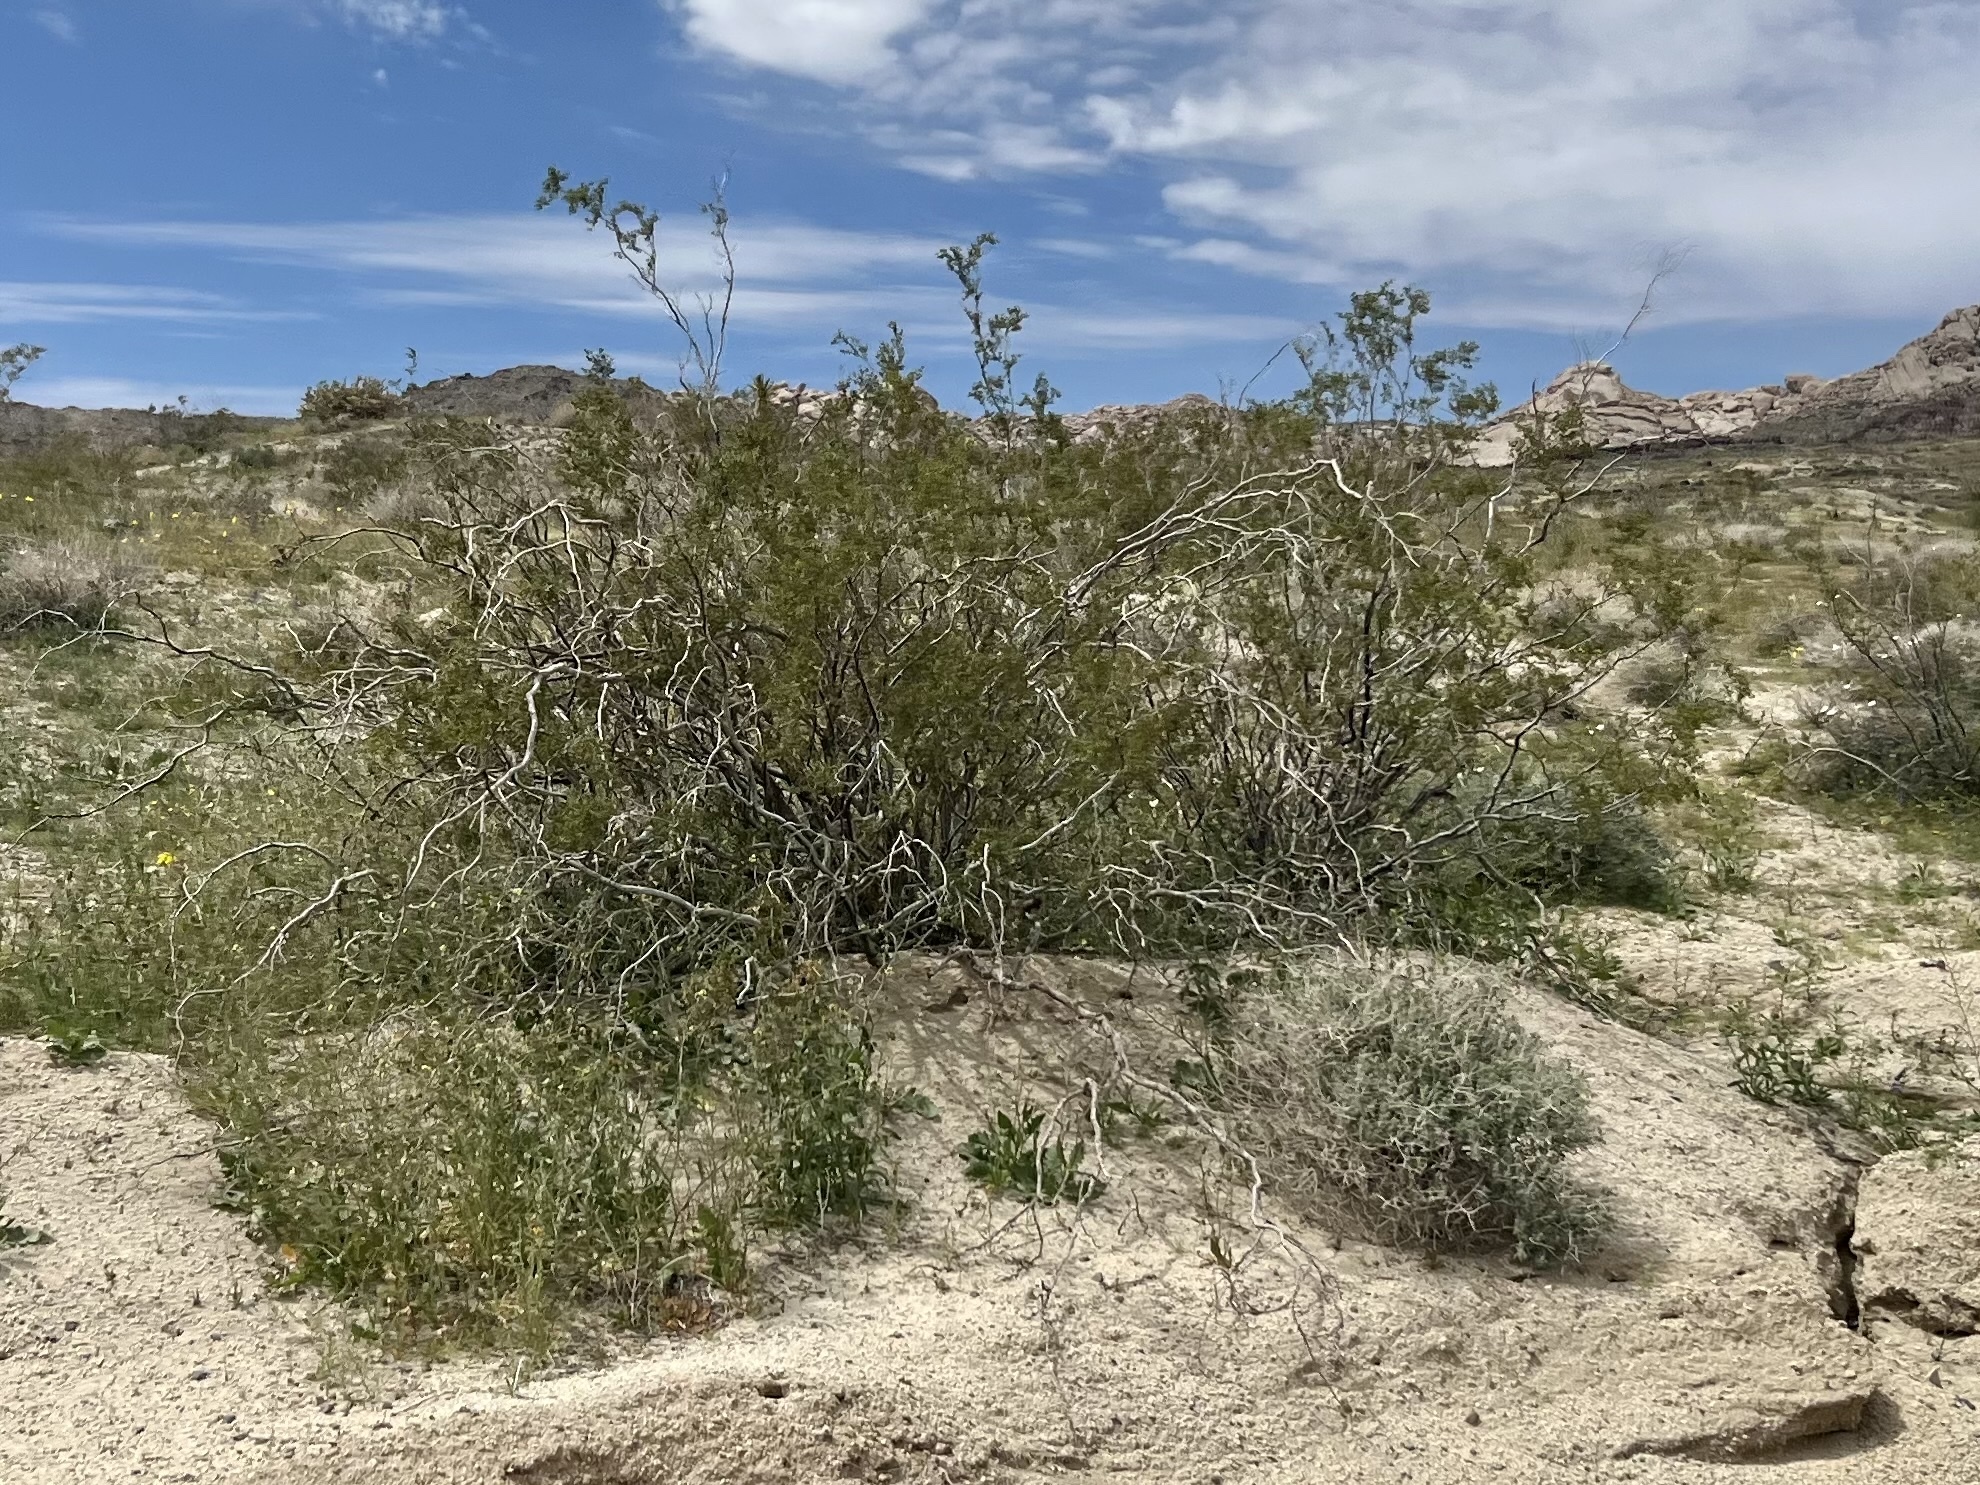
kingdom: Plantae
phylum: Tracheophyta
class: Magnoliopsida
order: Zygophyllales
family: Zygophyllaceae
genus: Larrea
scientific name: Larrea tridentata
